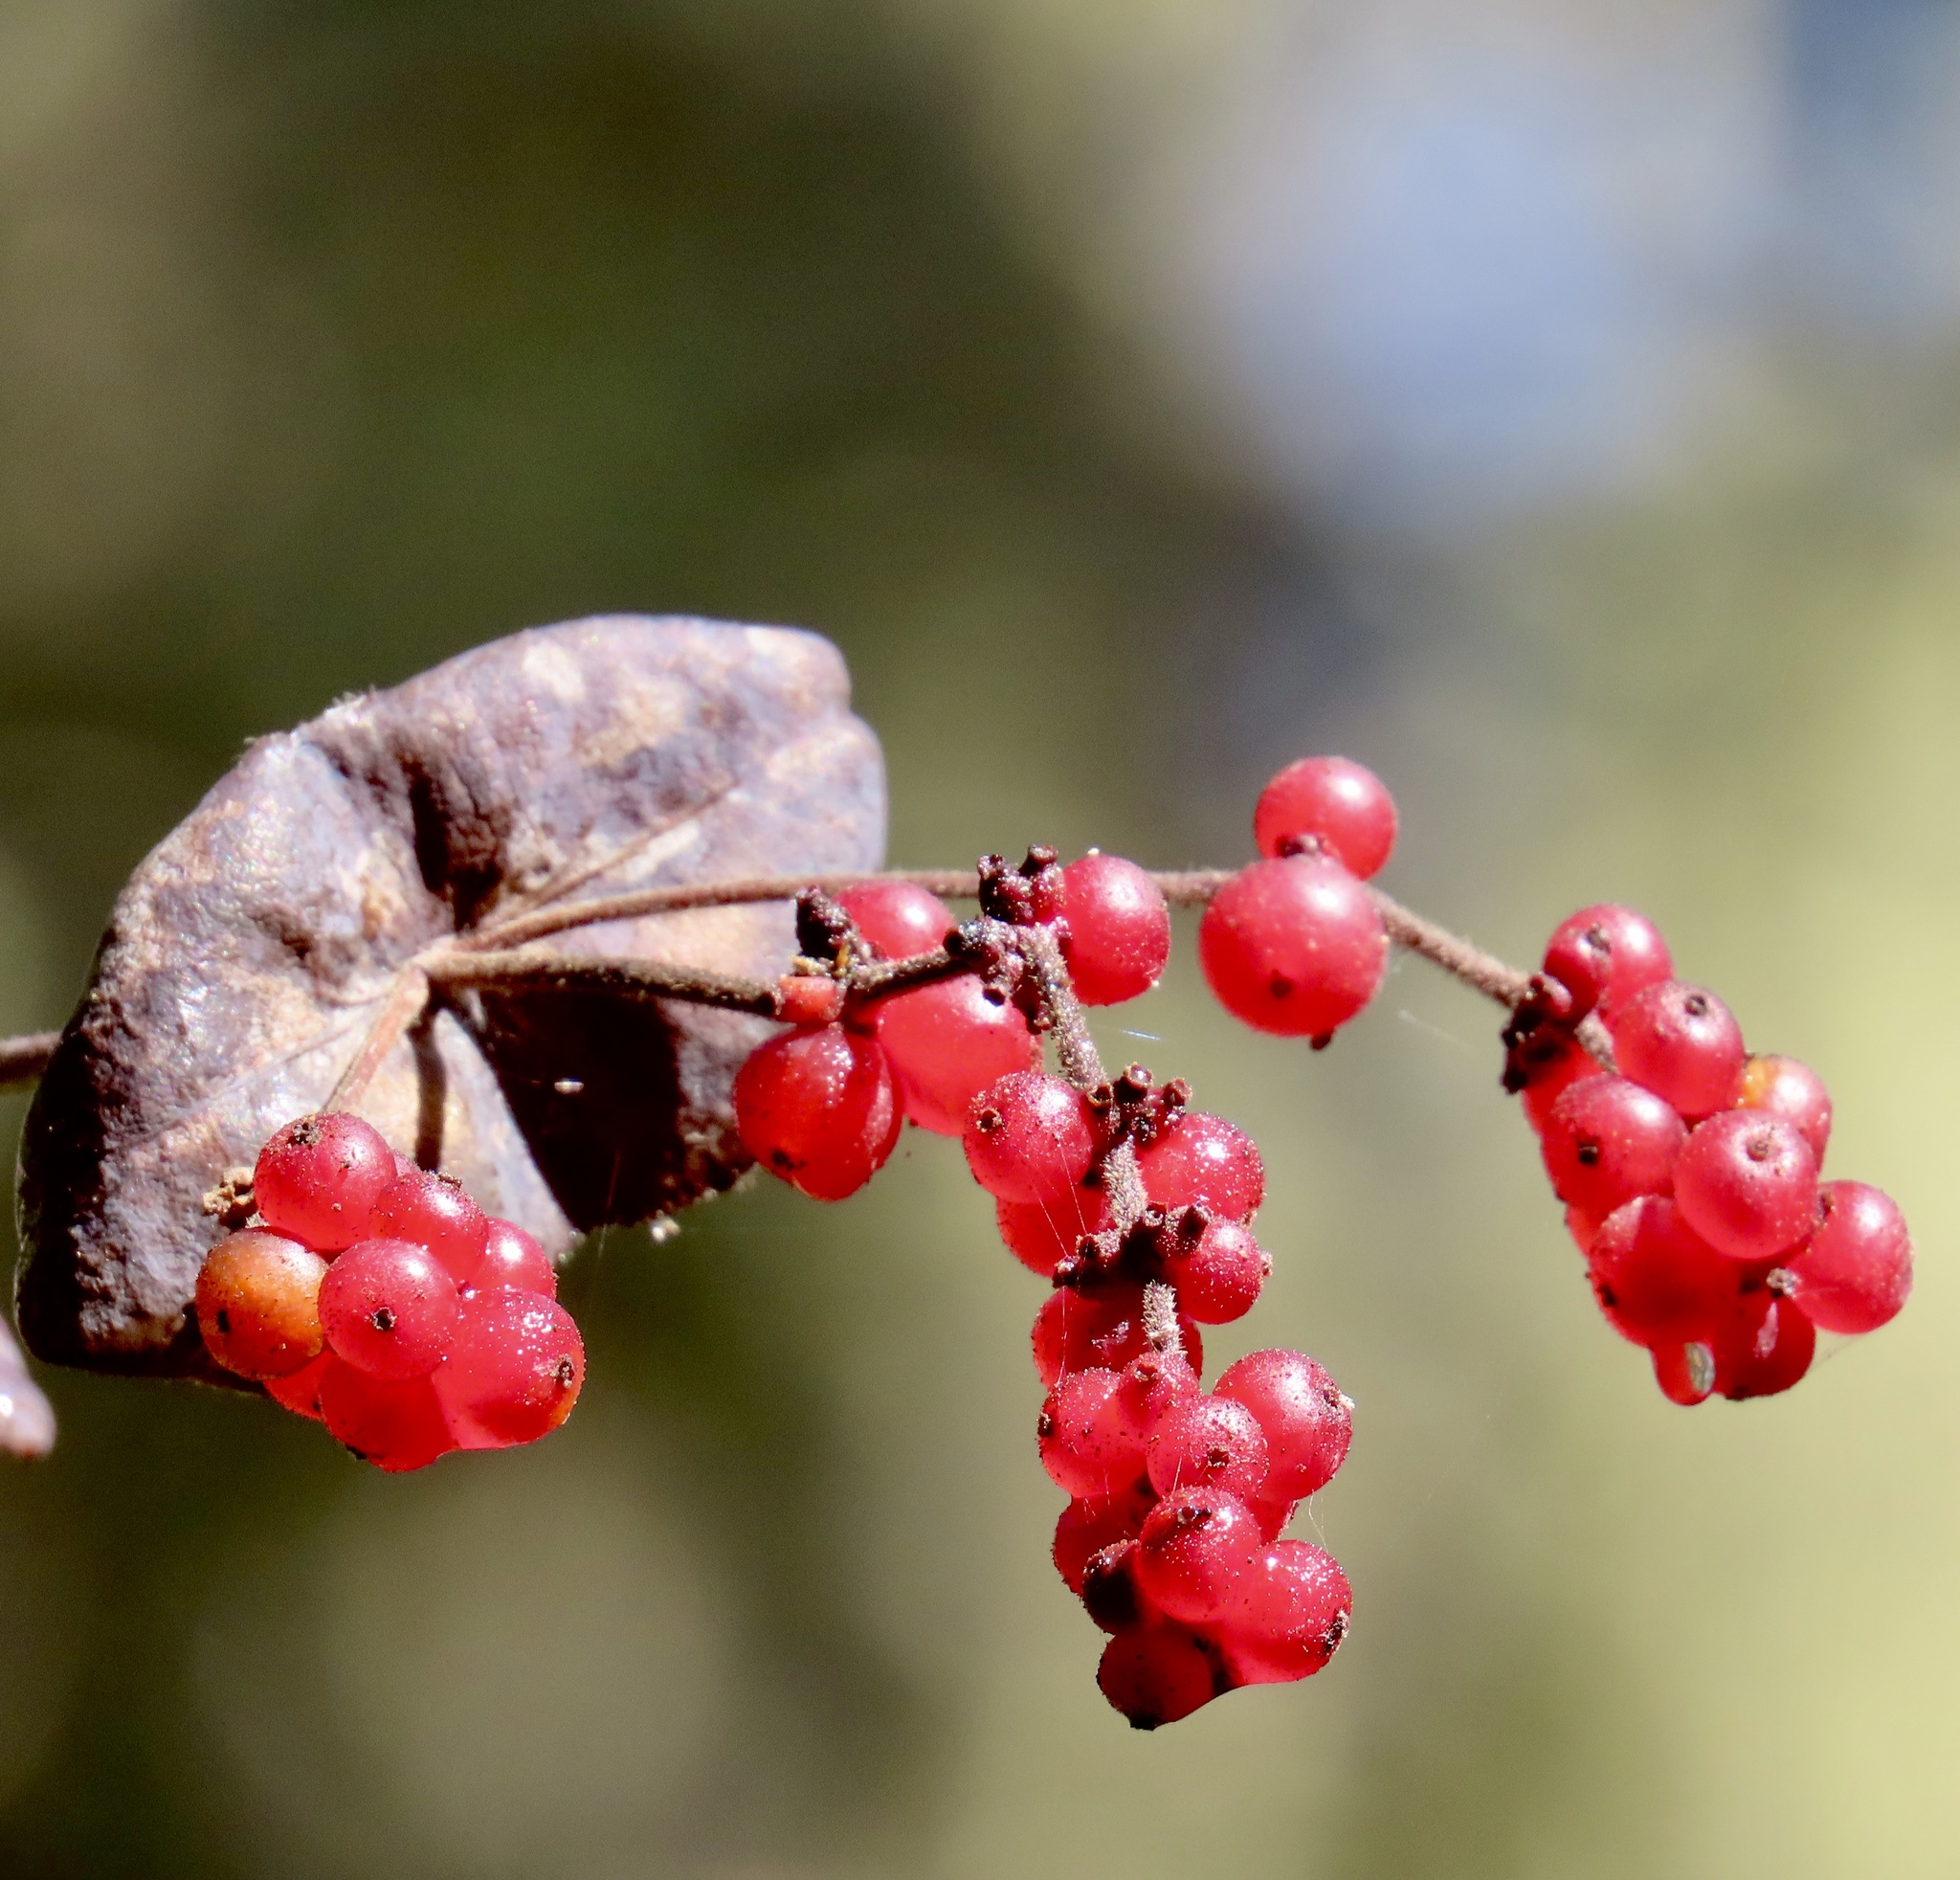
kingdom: Plantae
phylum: Tracheophyta
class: Magnoliopsida
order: Dipsacales
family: Caprifoliaceae
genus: Lonicera
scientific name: Lonicera hispidula
